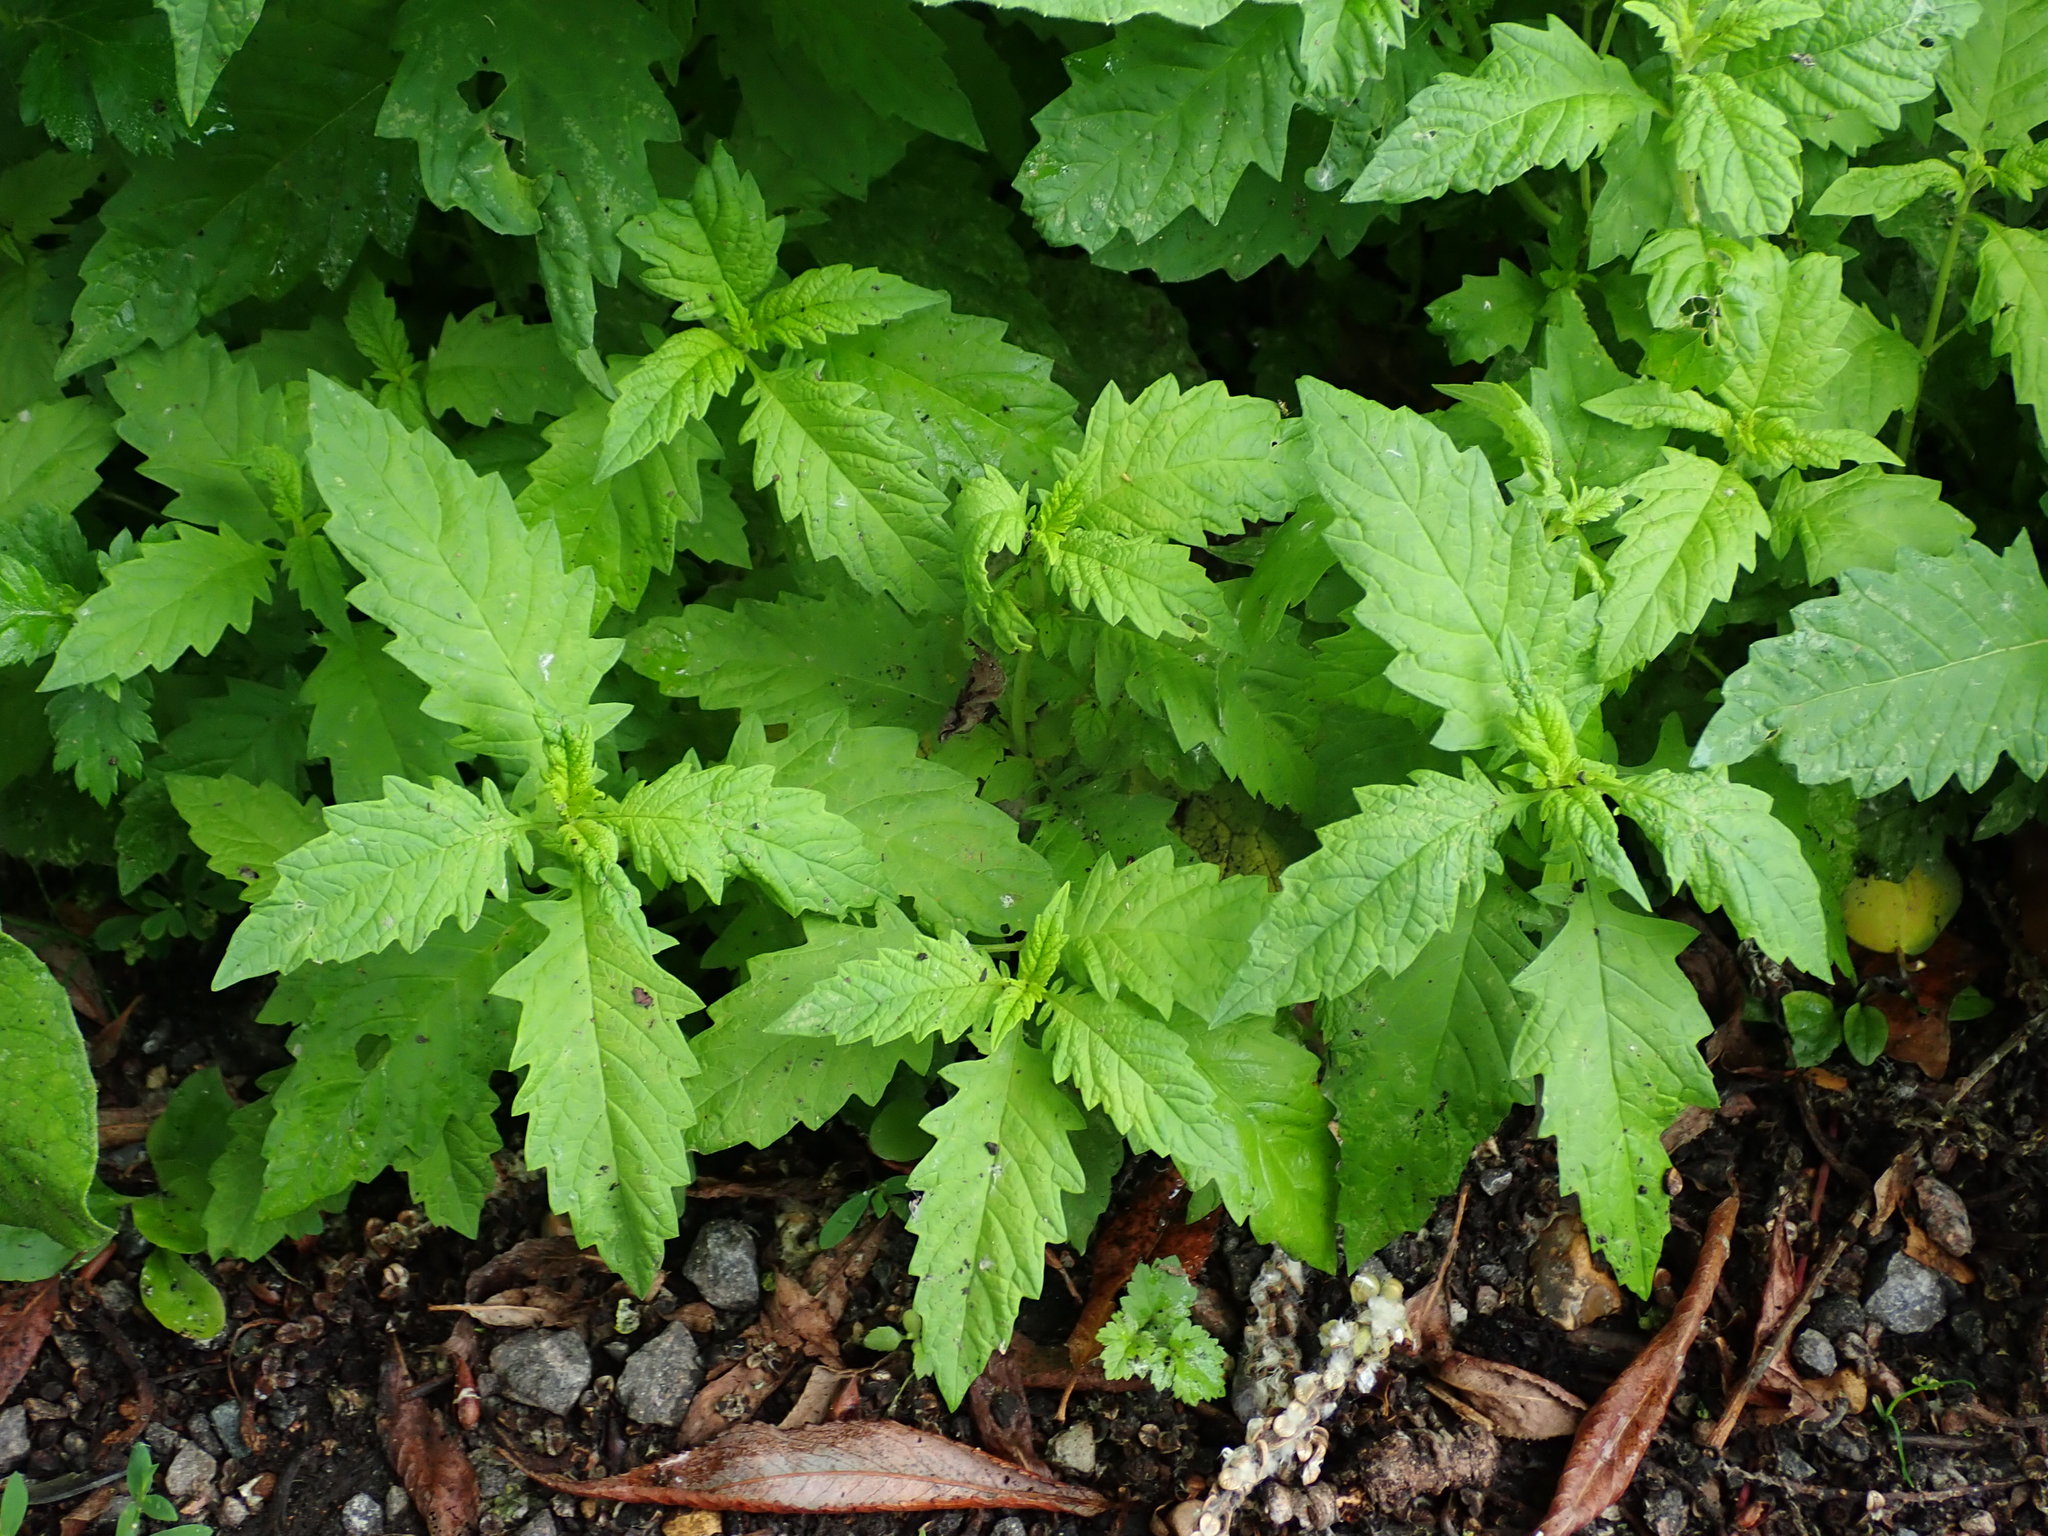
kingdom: Plantae
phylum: Tracheophyta
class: Magnoliopsida
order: Lamiales
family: Lamiaceae
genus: Lycopus
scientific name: Lycopus europaeus
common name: European bugleweed
